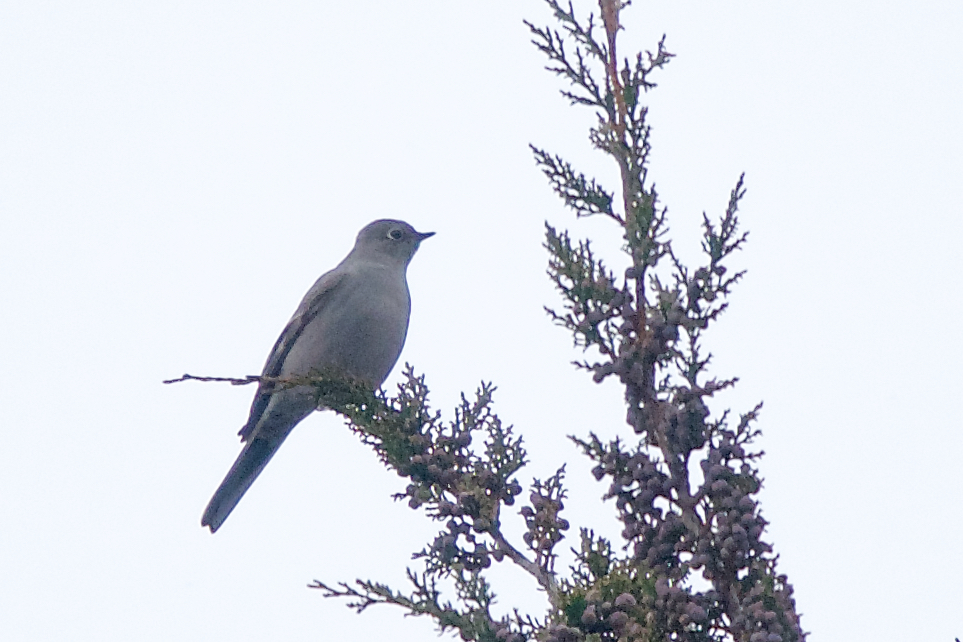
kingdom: Animalia
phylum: Chordata
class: Aves
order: Passeriformes
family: Turdidae
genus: Myadestes
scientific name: Myadestes townsendi
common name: Townsend's solitaire
